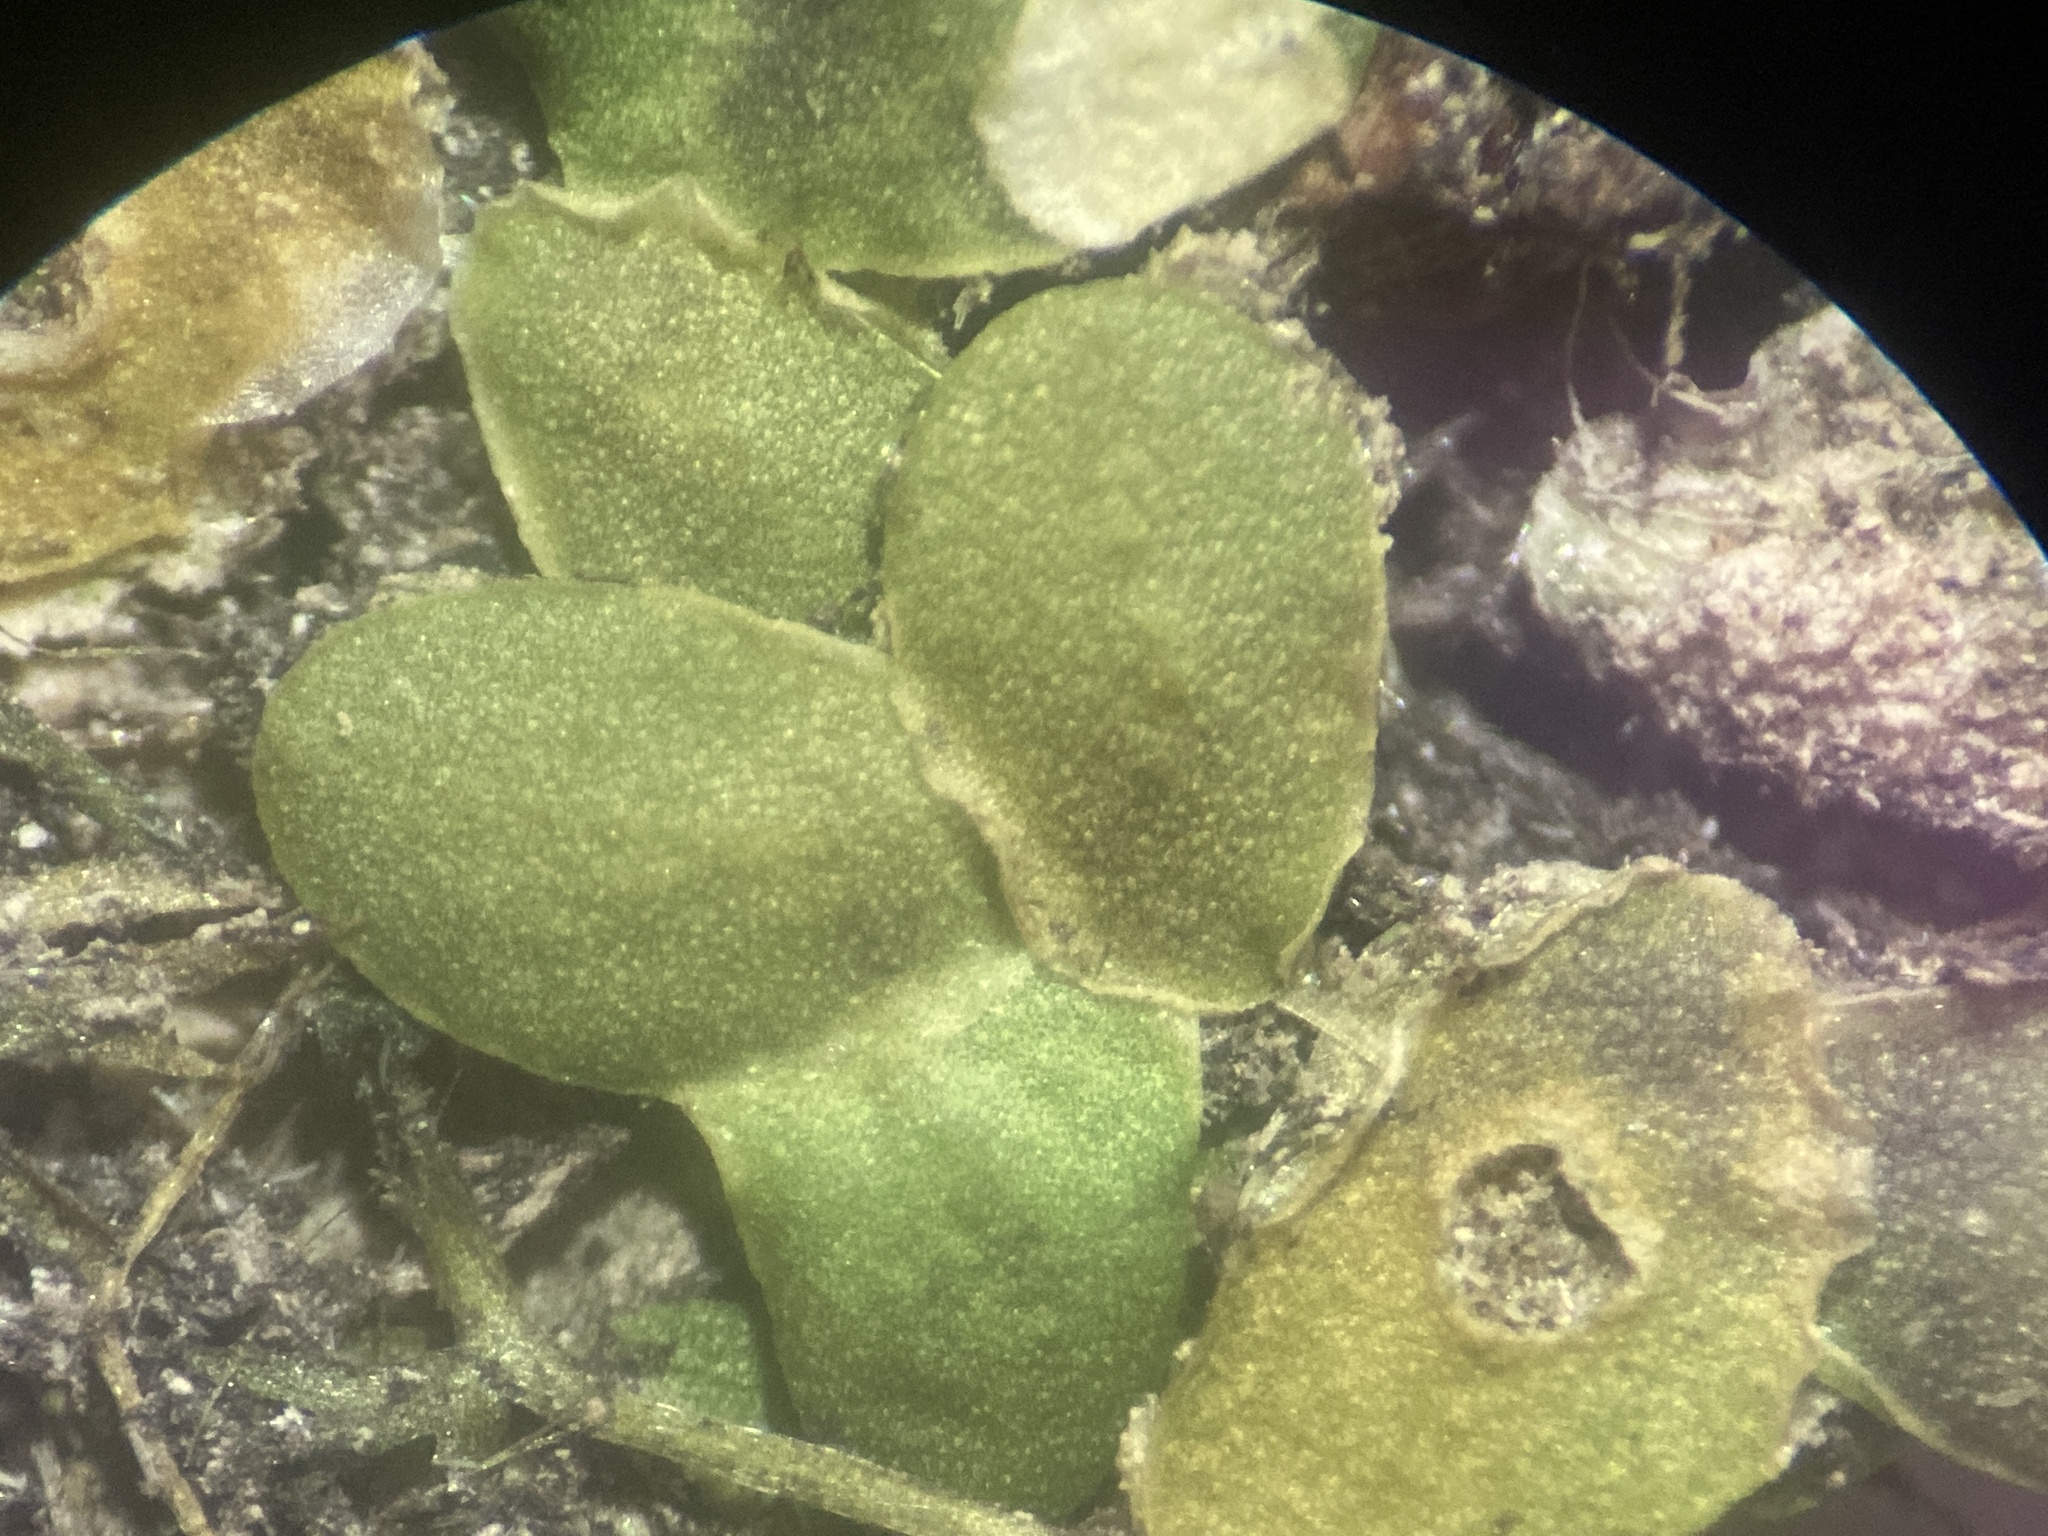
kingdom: Plantae
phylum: Tracheophyta
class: Liliopsida
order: Alismatales
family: Araceae
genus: Lemna
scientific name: Lemna turionifera
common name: Perennial duckweed
